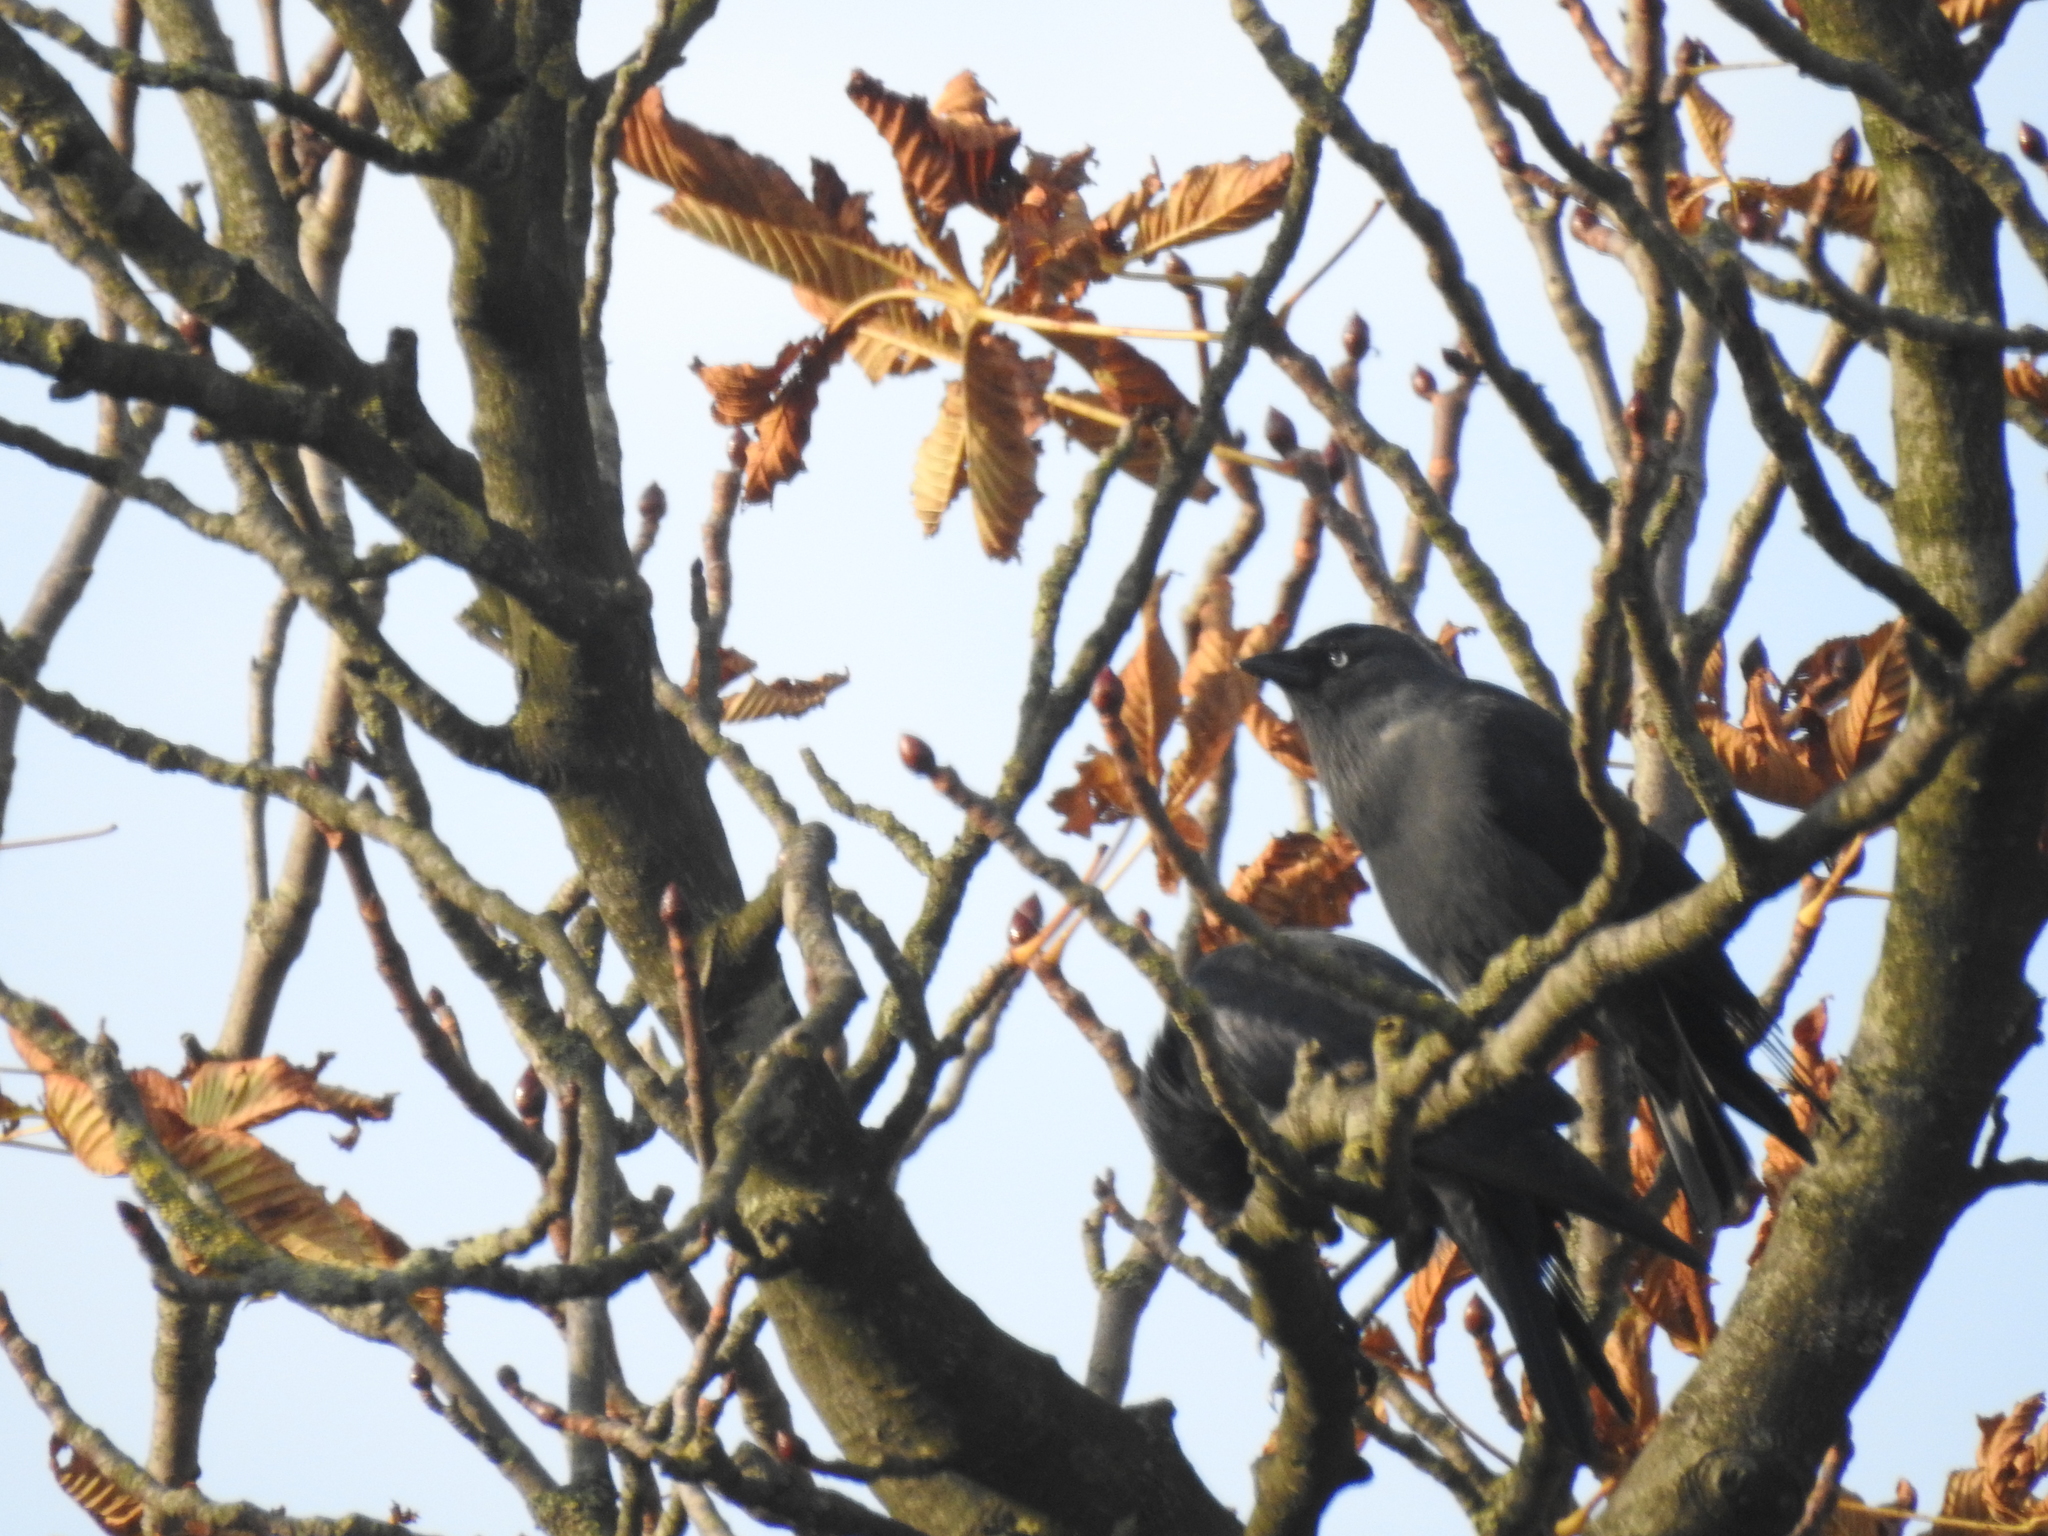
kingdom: Animalia
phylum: Chordata
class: Aves
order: Passeriformes
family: Corvidae
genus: Coloeus
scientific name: Coloeus monedula
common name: Western jackdaw
